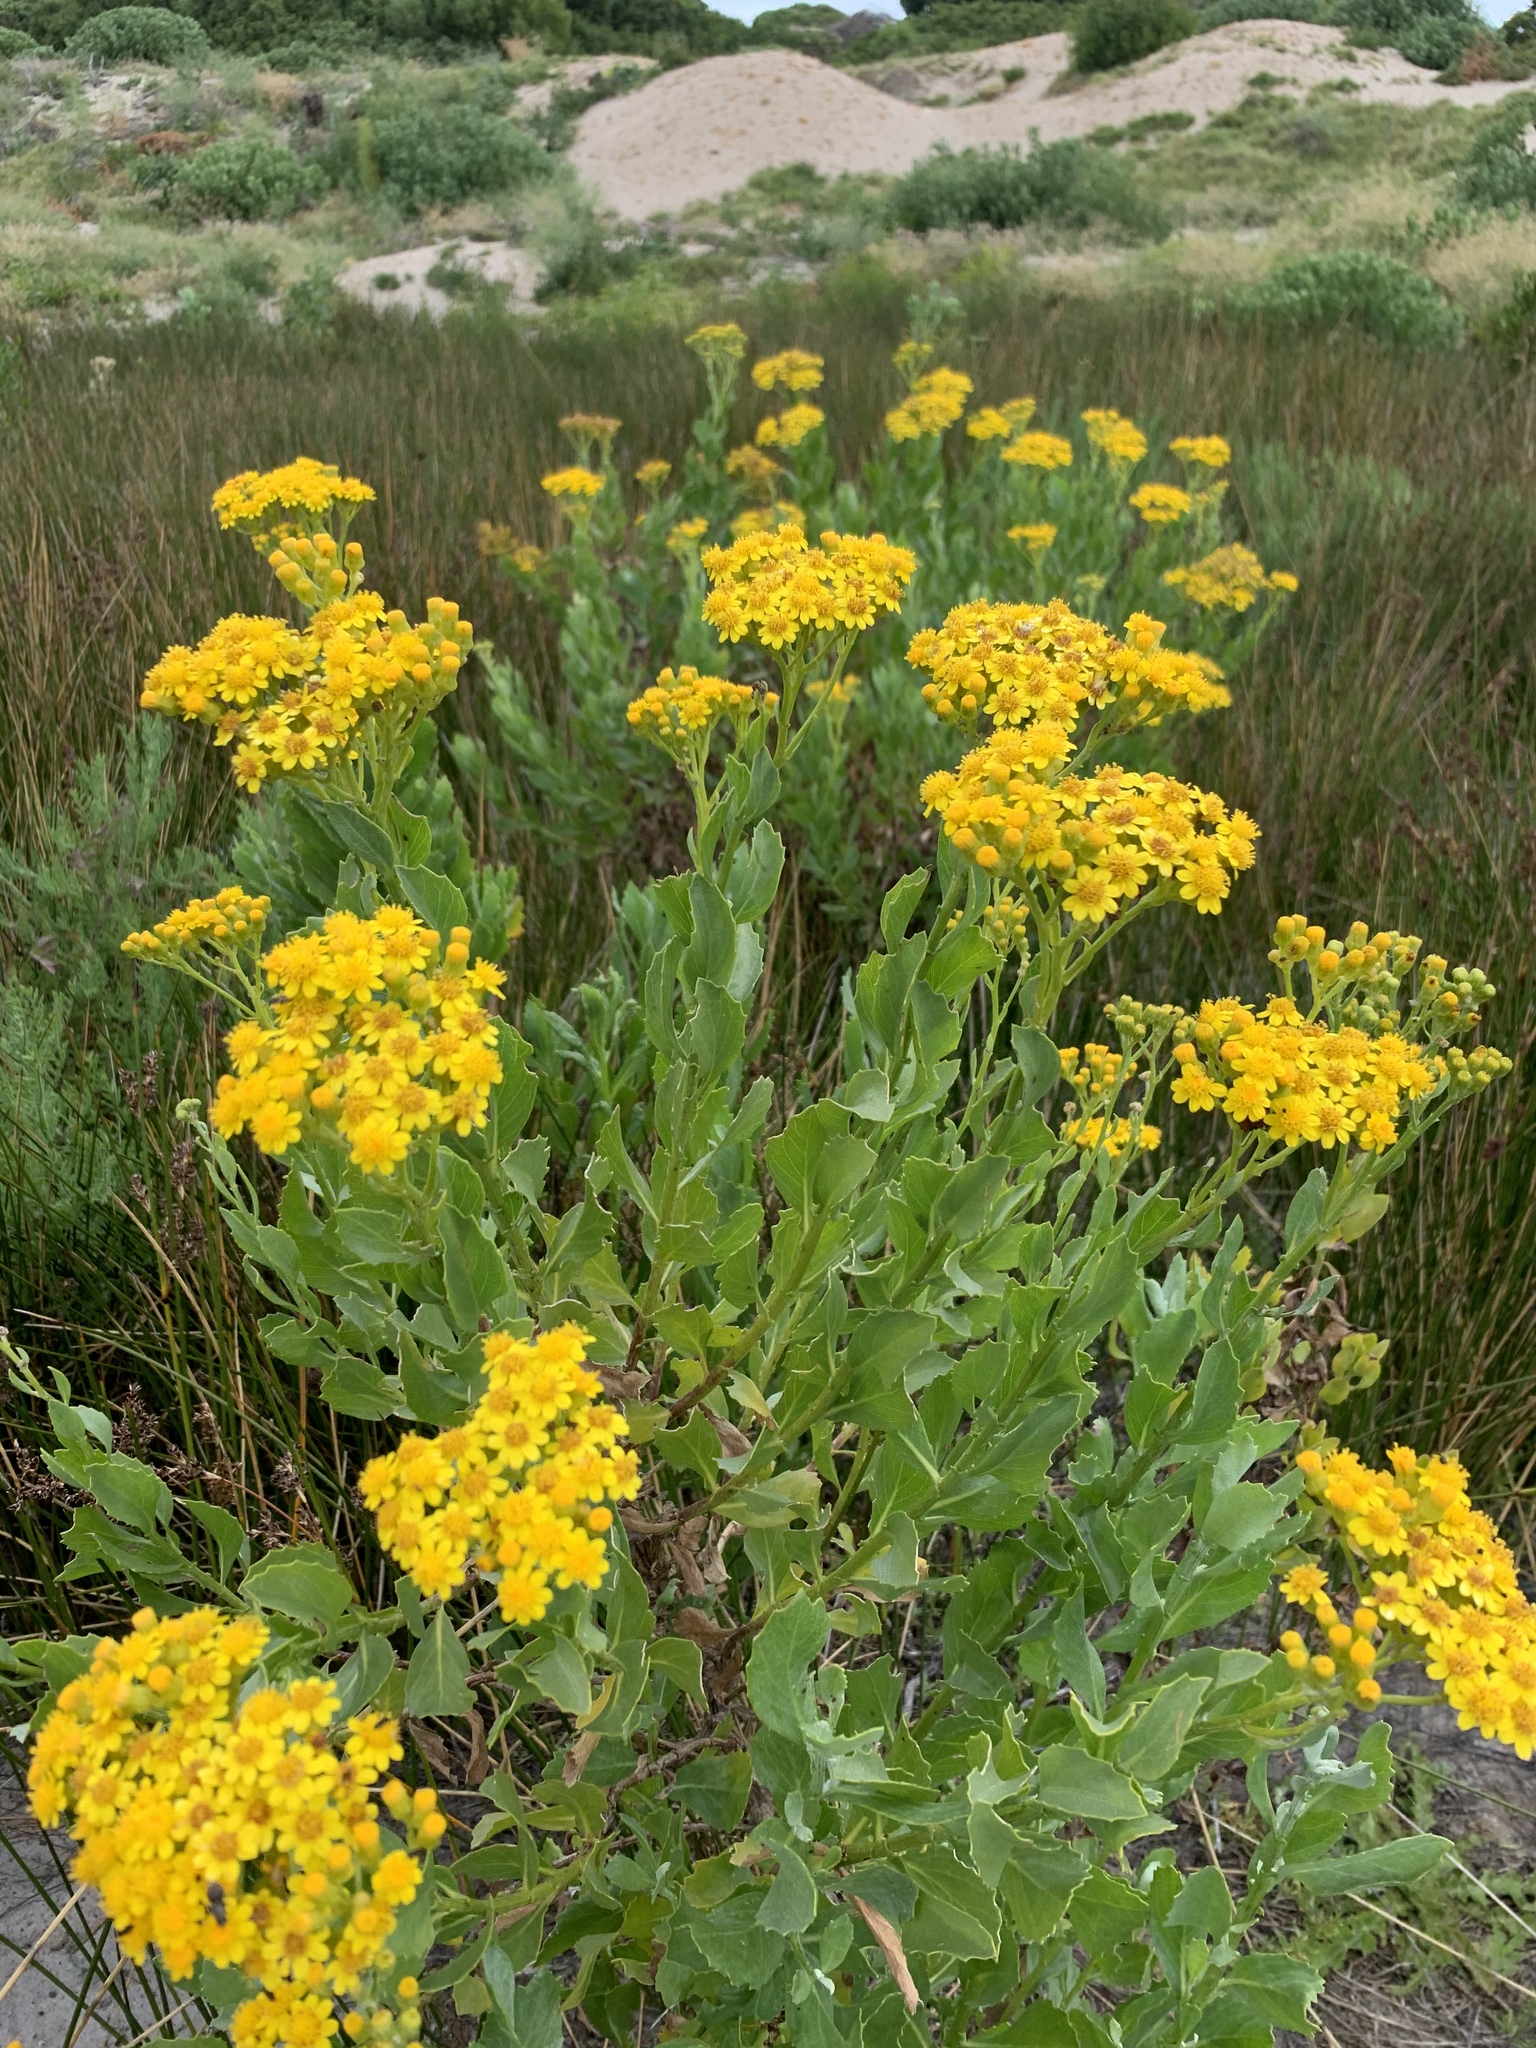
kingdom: Plantae
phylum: Tracheophyta
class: Magnoliopsida
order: Asterales
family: Asteraceae
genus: Senecio
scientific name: Senecio halimifolius
